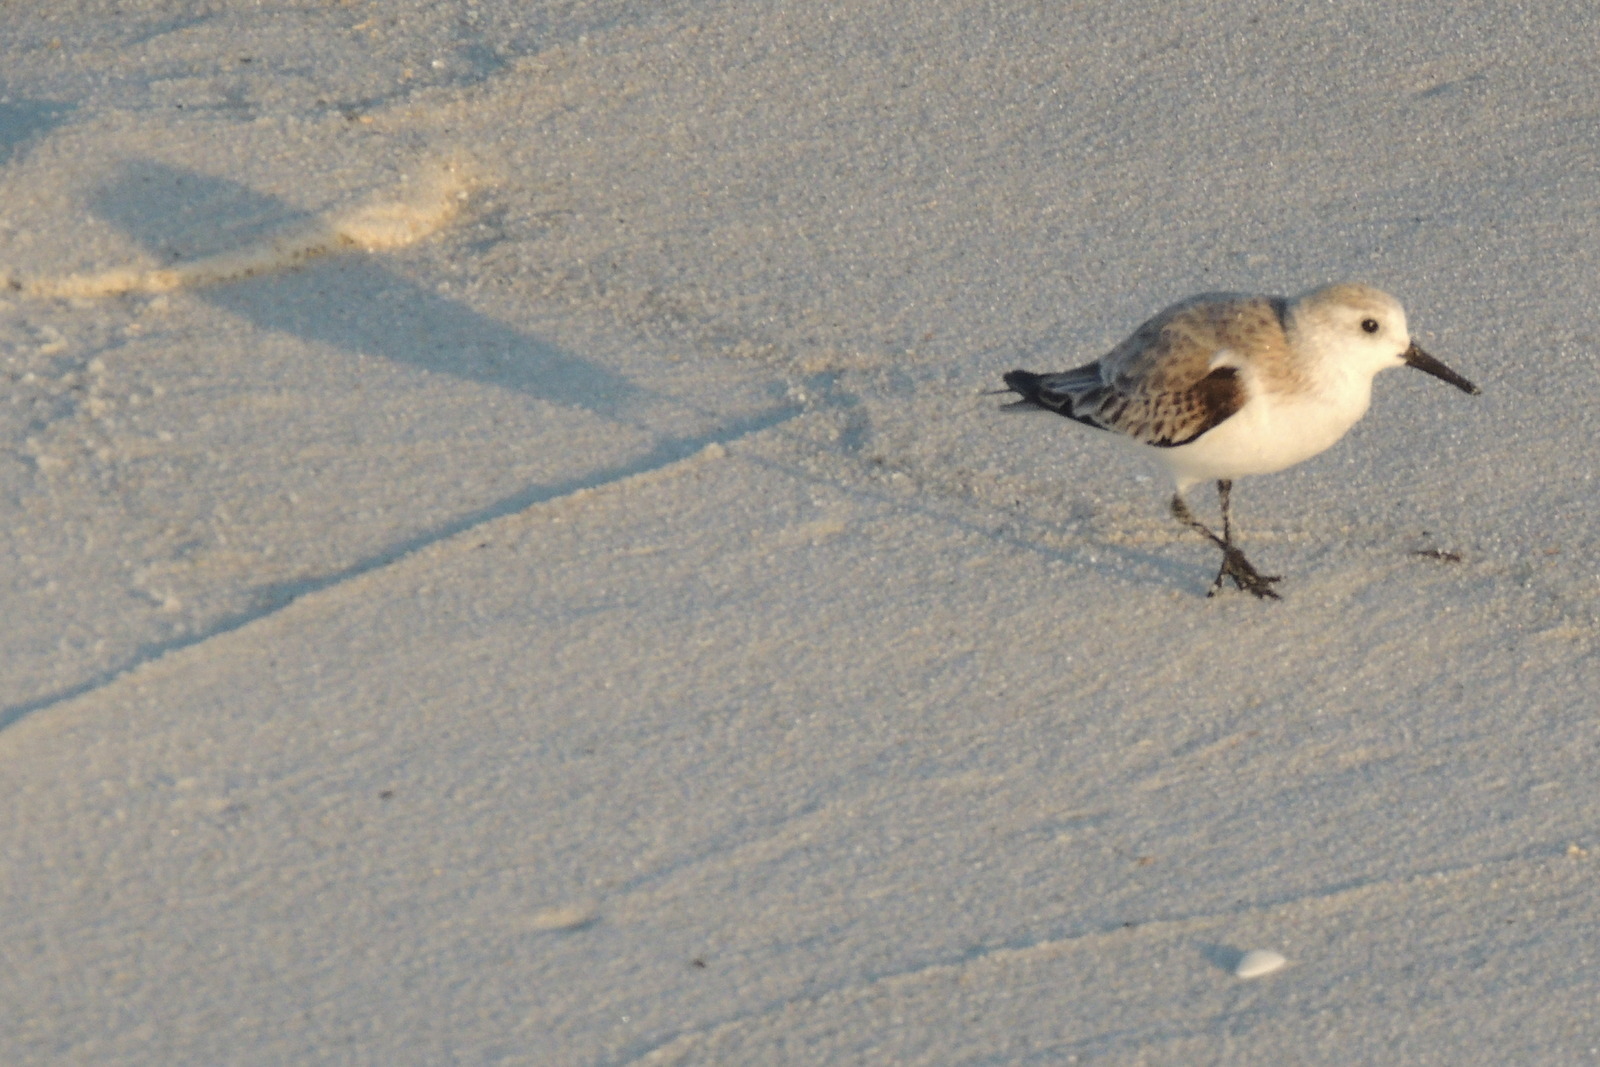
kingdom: Animalia
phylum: Chordata
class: Aves
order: Charadriiformes
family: Scolopacidae
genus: Calidris
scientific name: Calidris alba
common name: Sanderling
